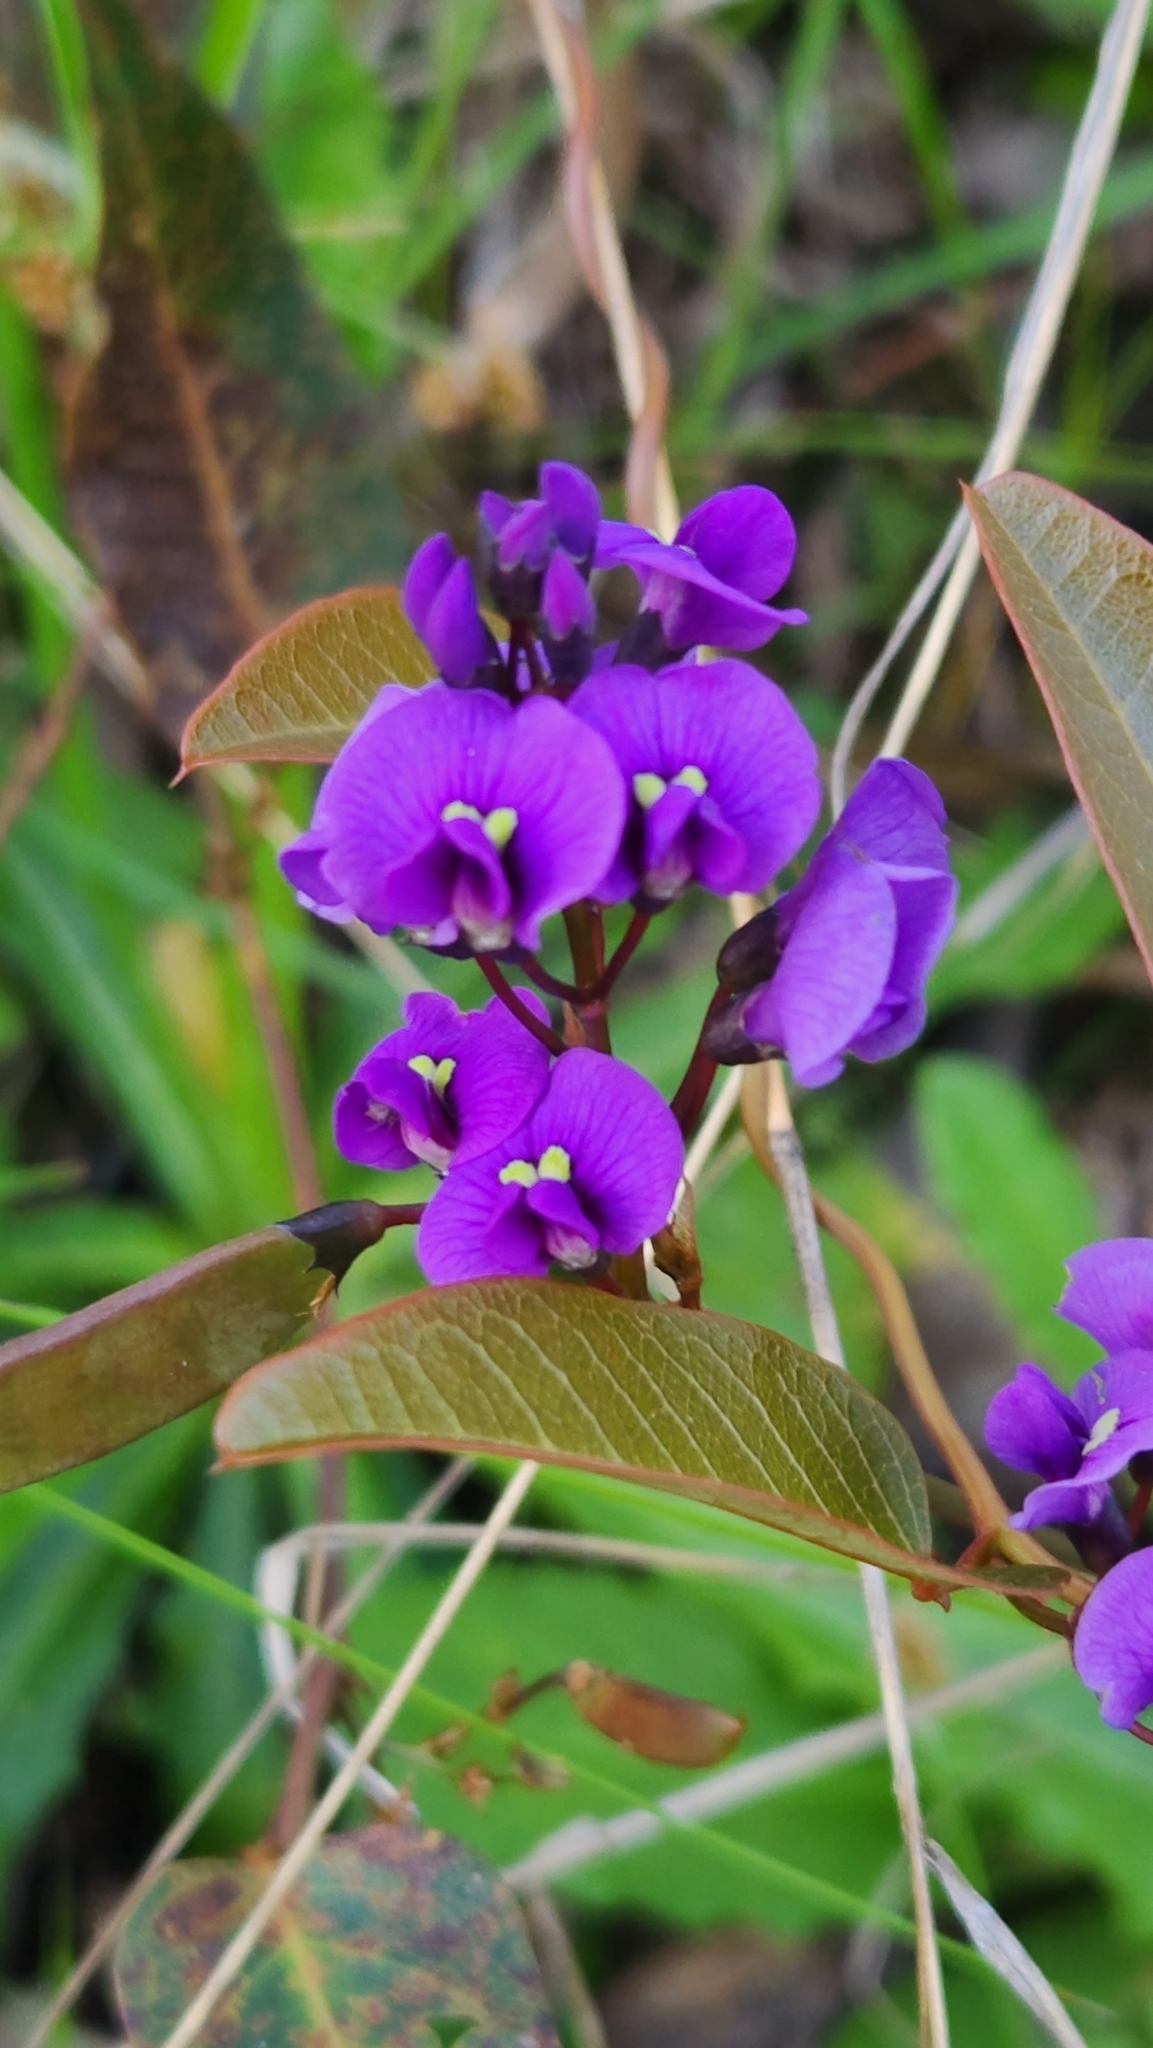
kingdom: Plantae
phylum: Tracheophyta
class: Magnoliopsida
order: Fabales
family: Fabaceae
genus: Hardenbergia
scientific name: Hardenbergia violacea
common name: Coral-pea
